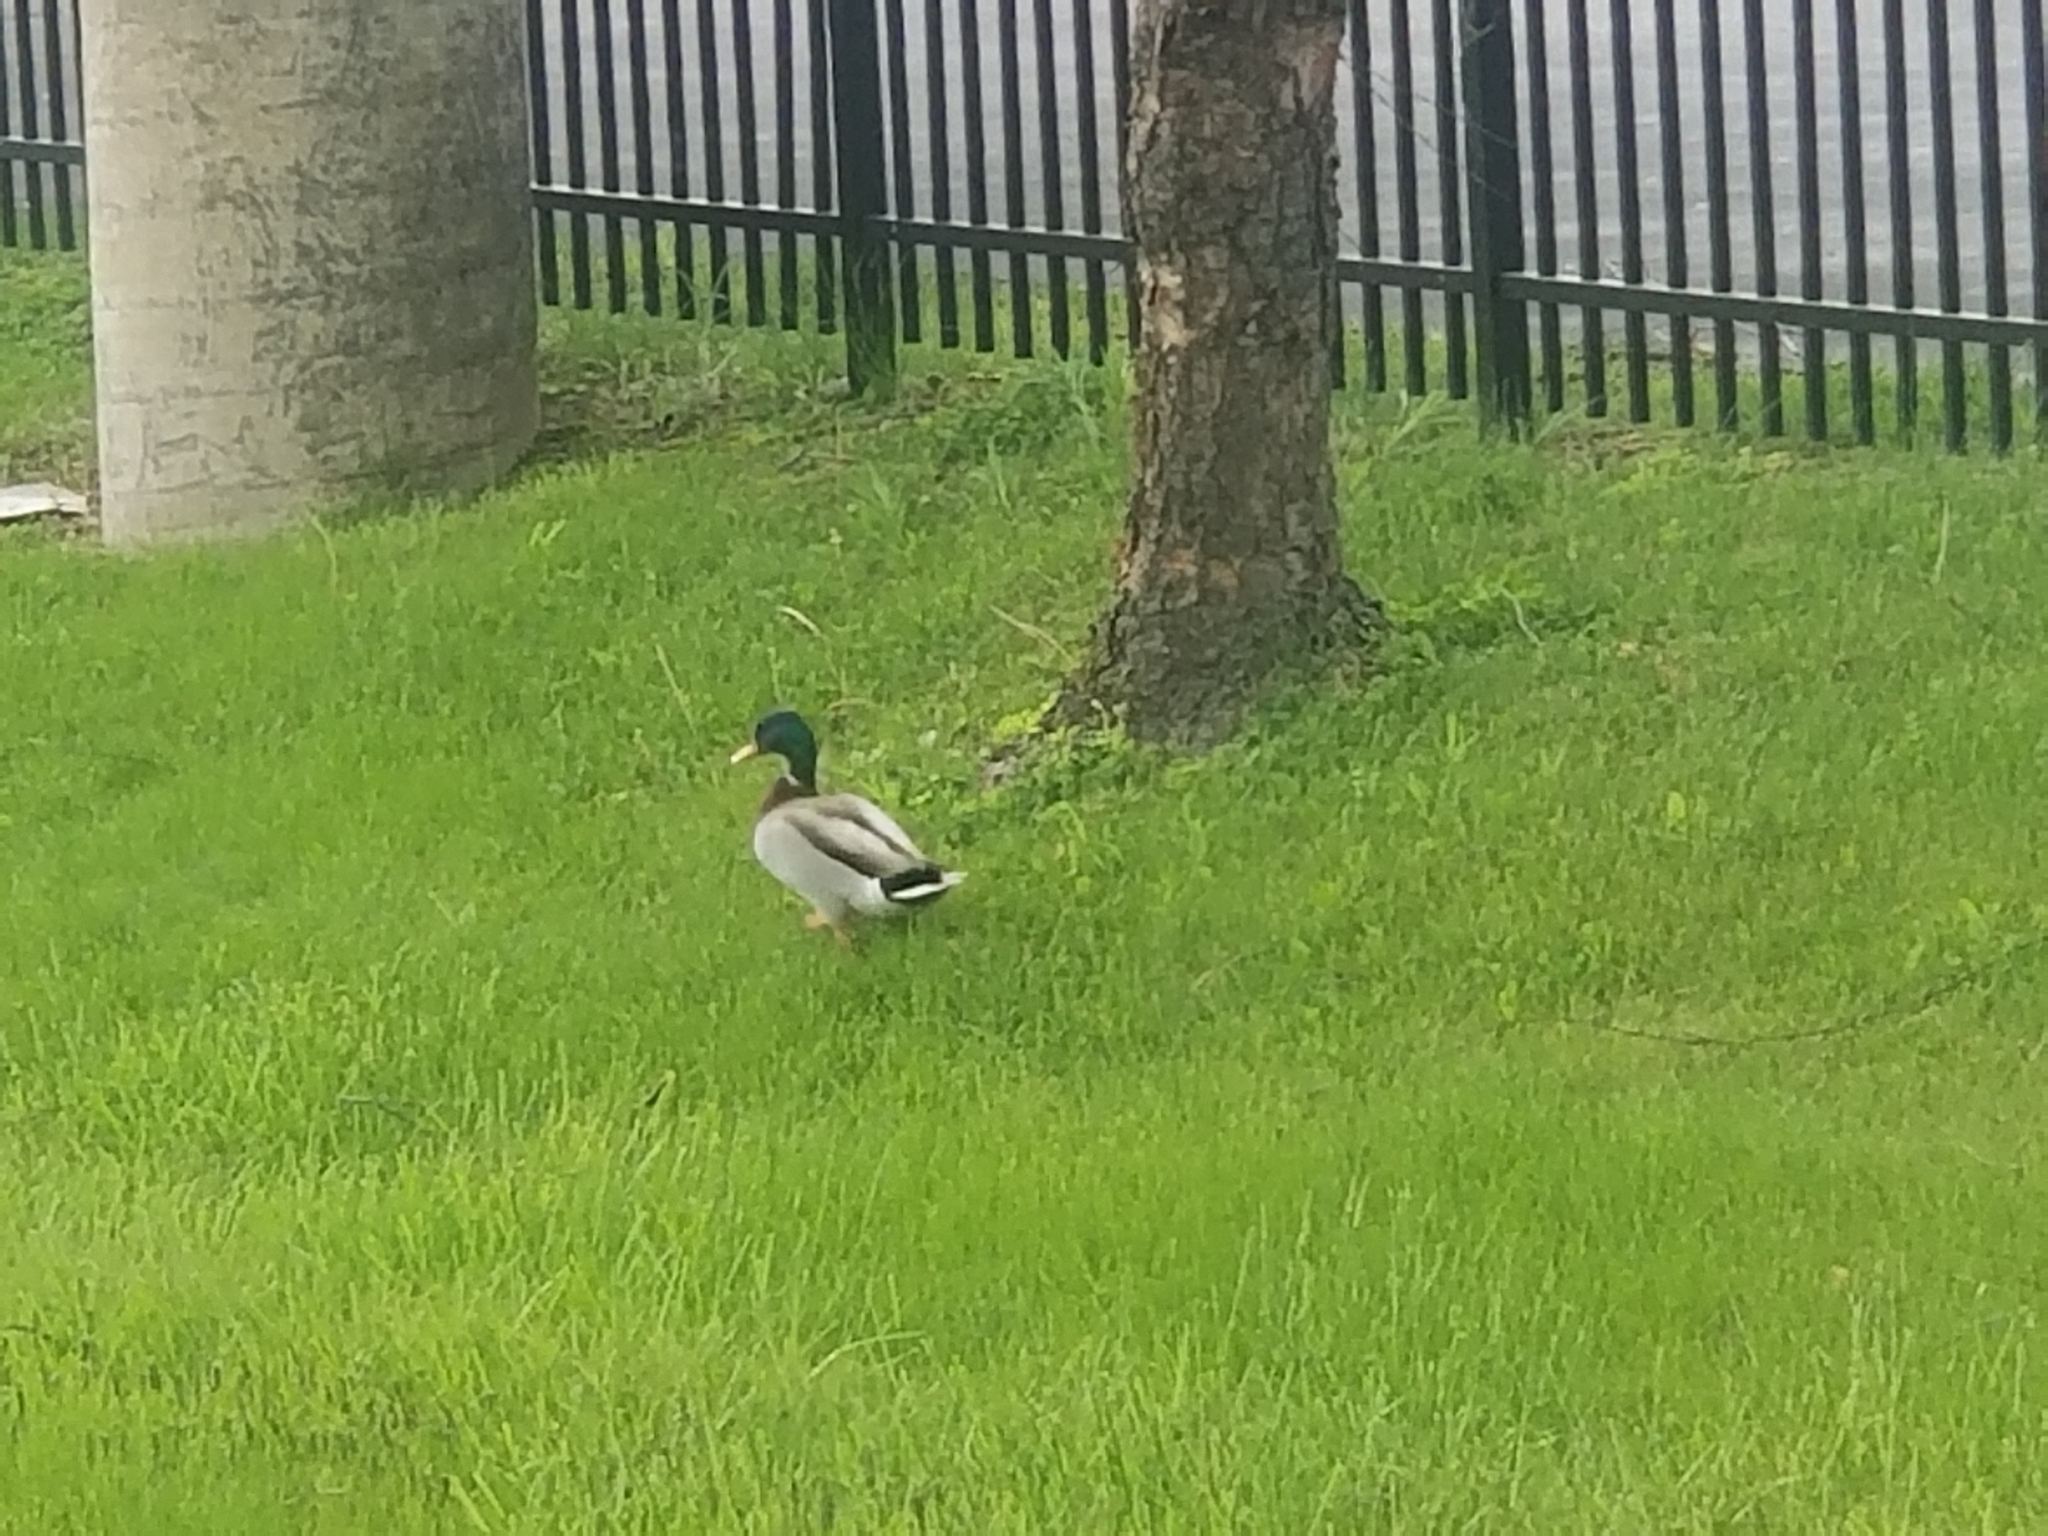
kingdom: Animalia
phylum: Chordata
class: Aves
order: Anseriformes
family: Anatidae
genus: Anas
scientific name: Anas platyrhynchos
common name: Mallard
